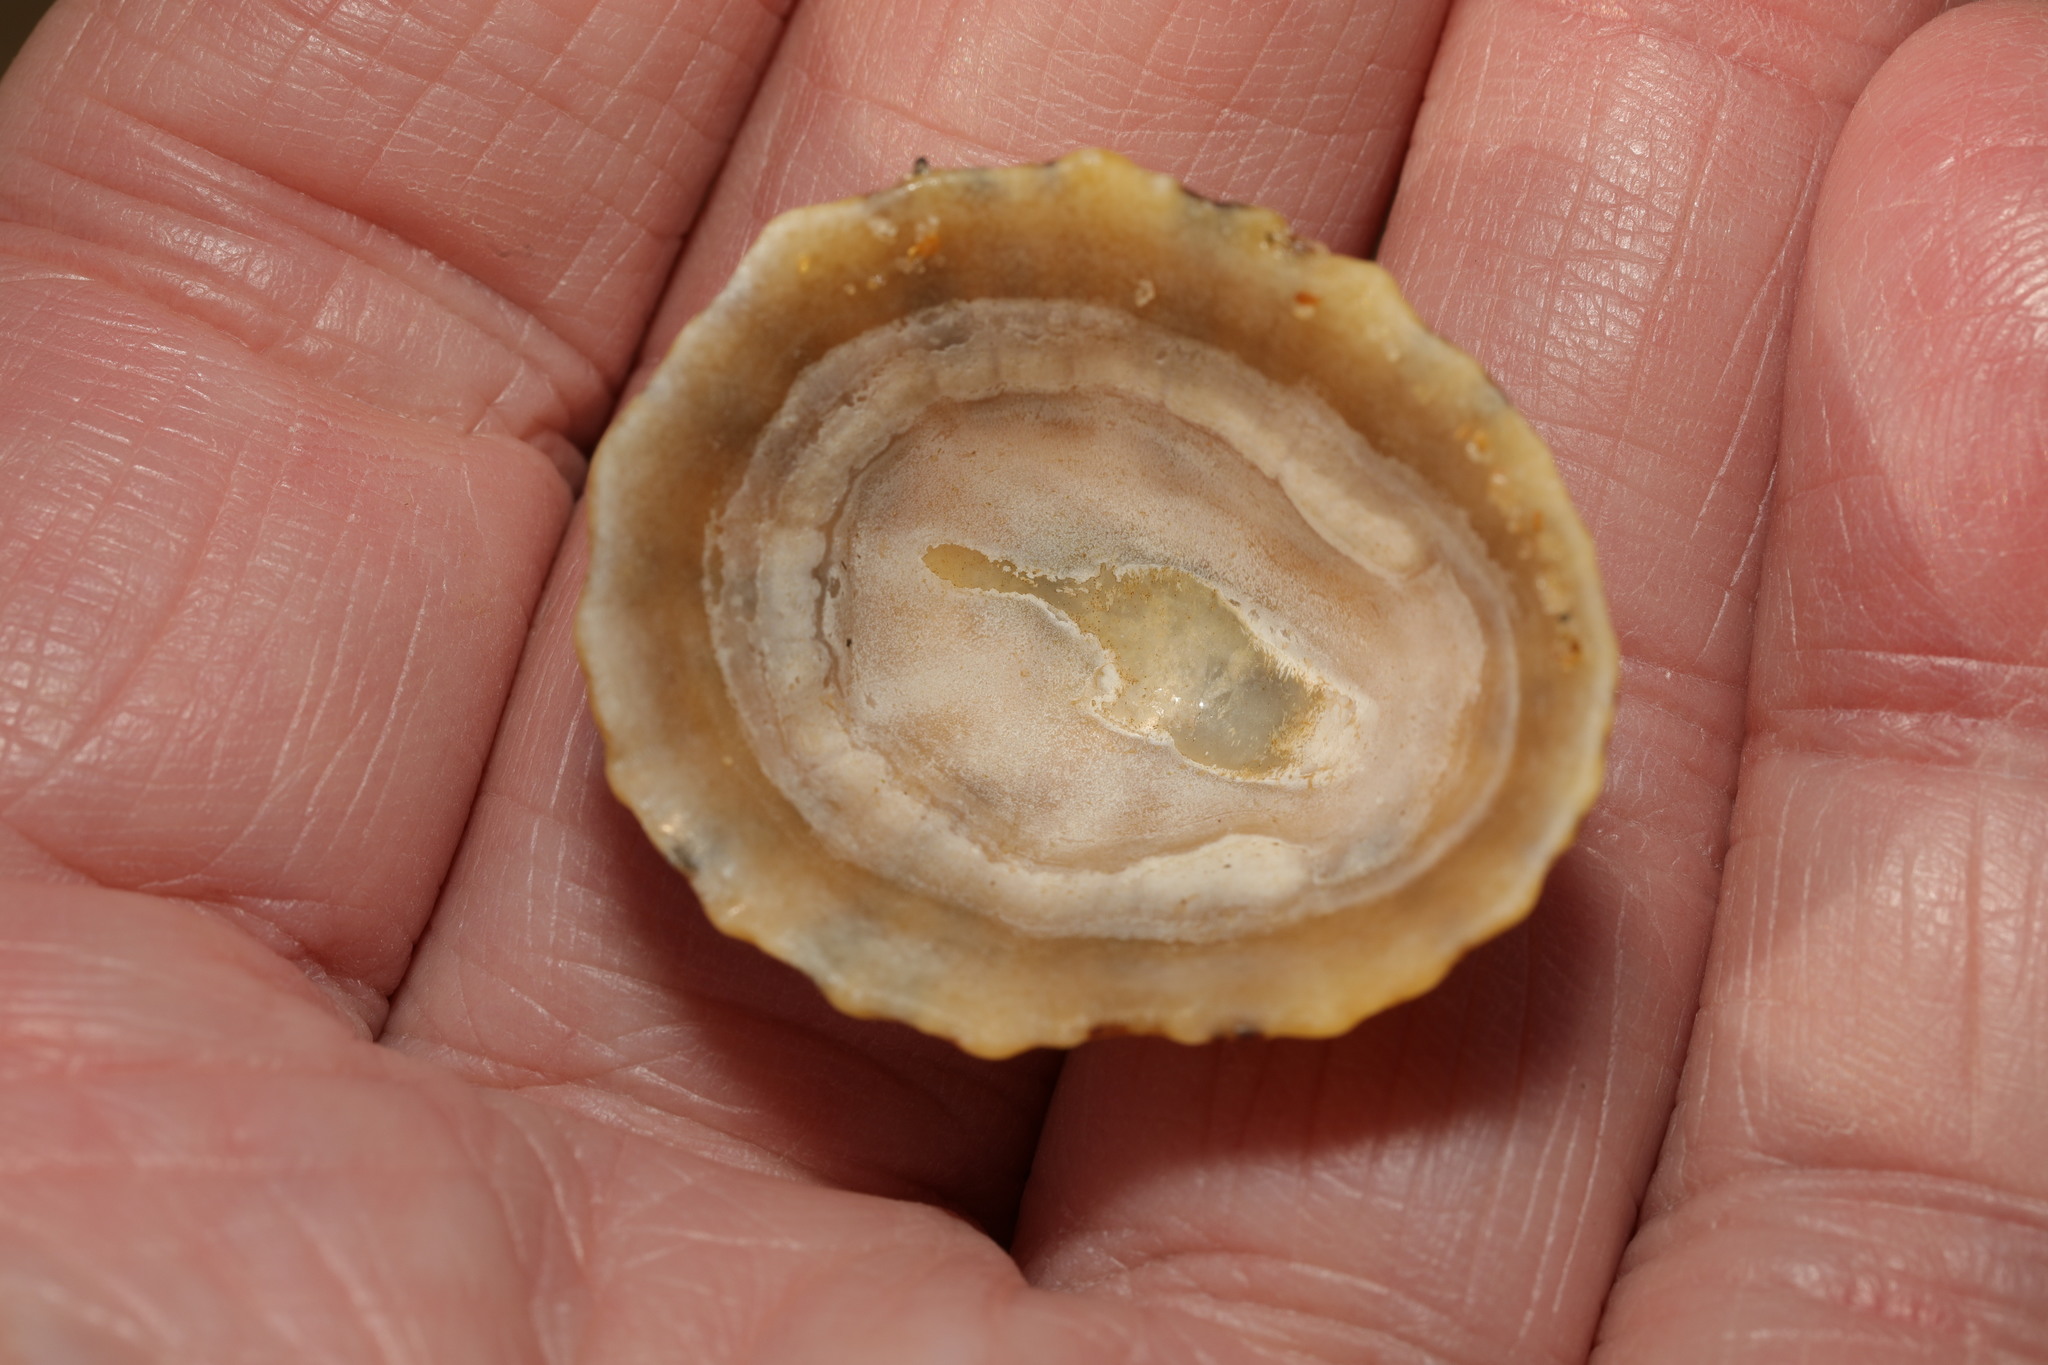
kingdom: Animalia
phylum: Mollusca
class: Gastropoda
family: Patellidae
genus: Patella
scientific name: Patella vulgata
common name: Common limpet
